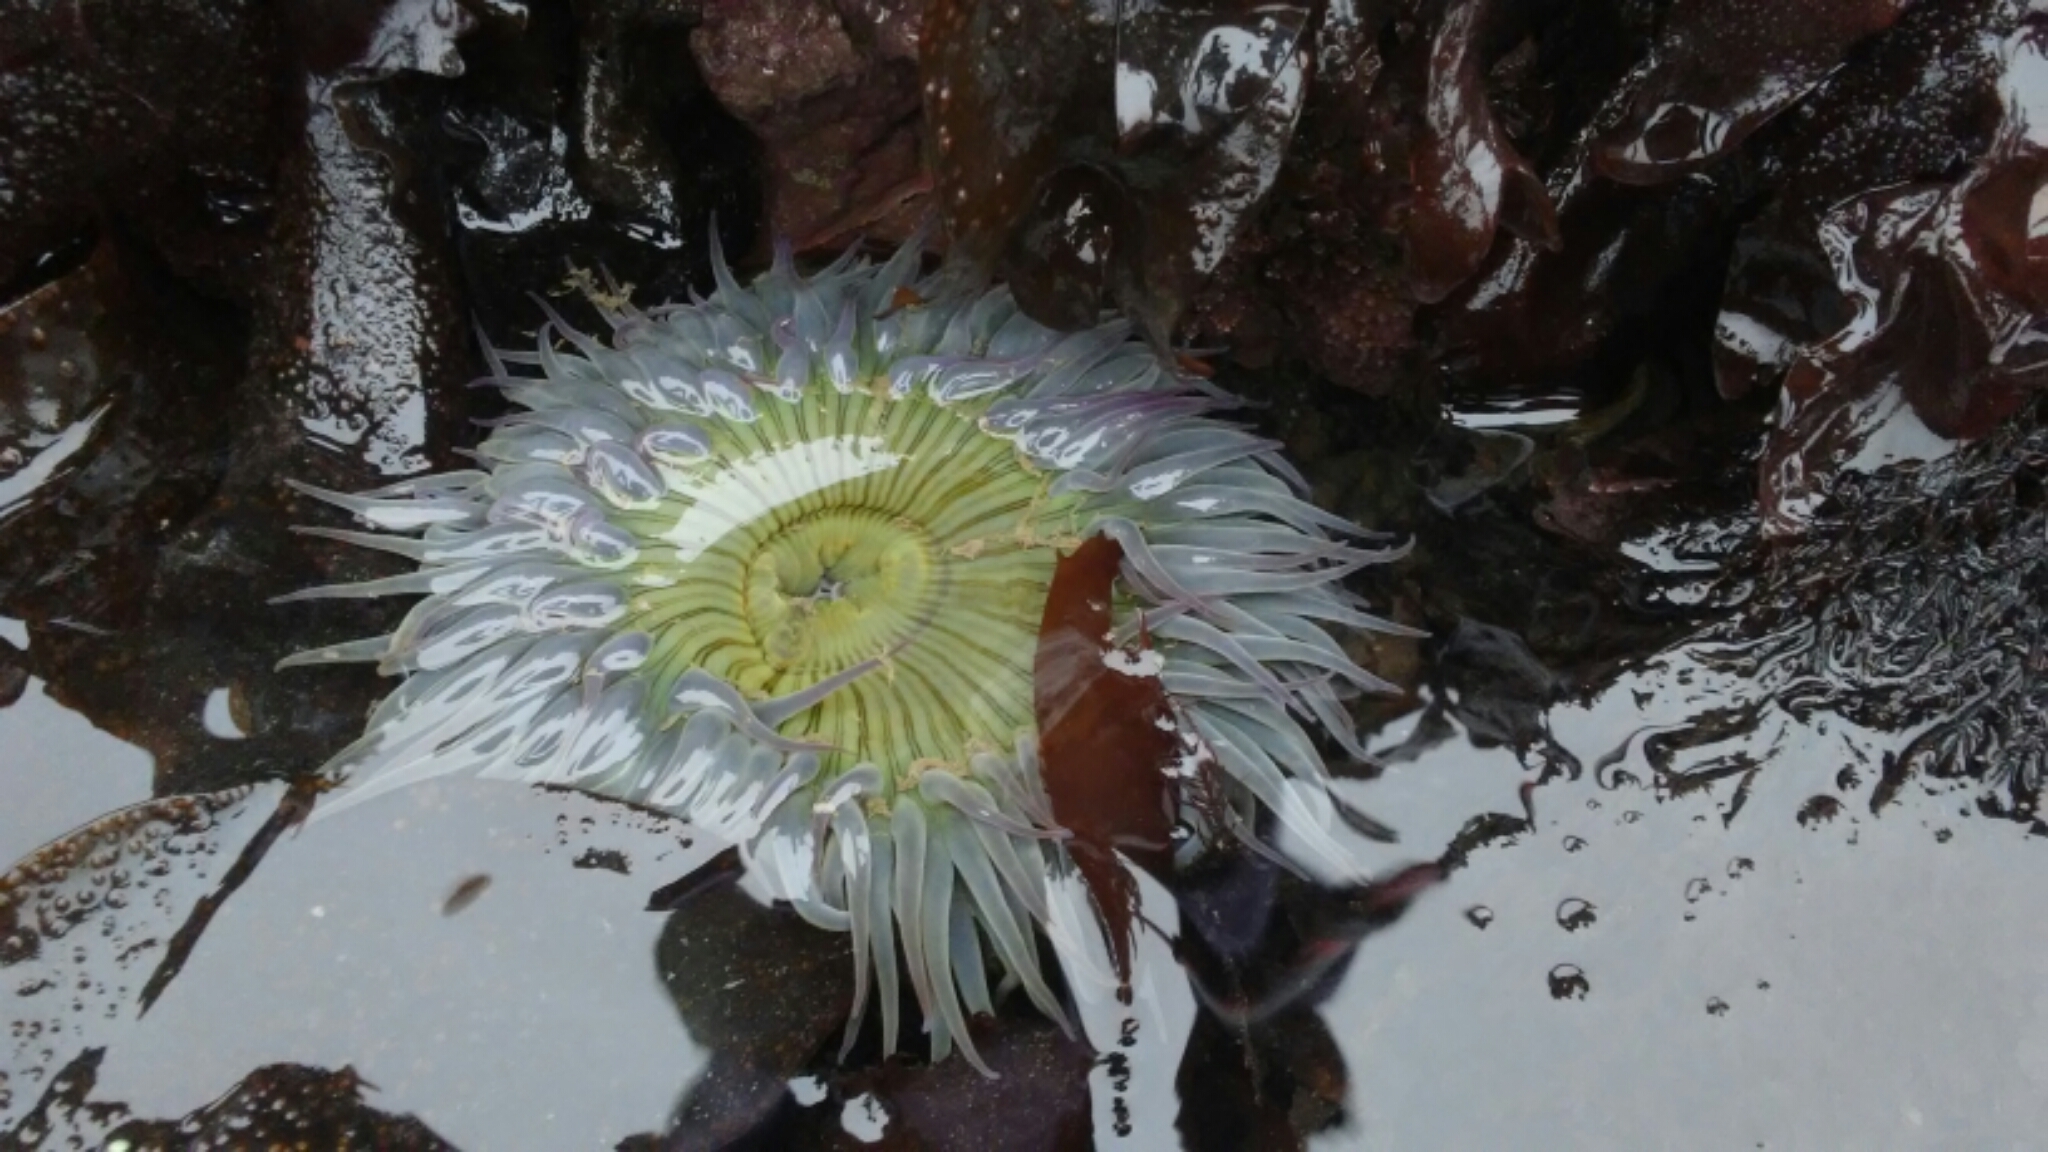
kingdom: Animalia
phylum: Cnidaria
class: Anthozoa
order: Actiniaria
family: Actiniidae
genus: Anthopleura
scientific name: Anthopleura sola
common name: Sun anemone
